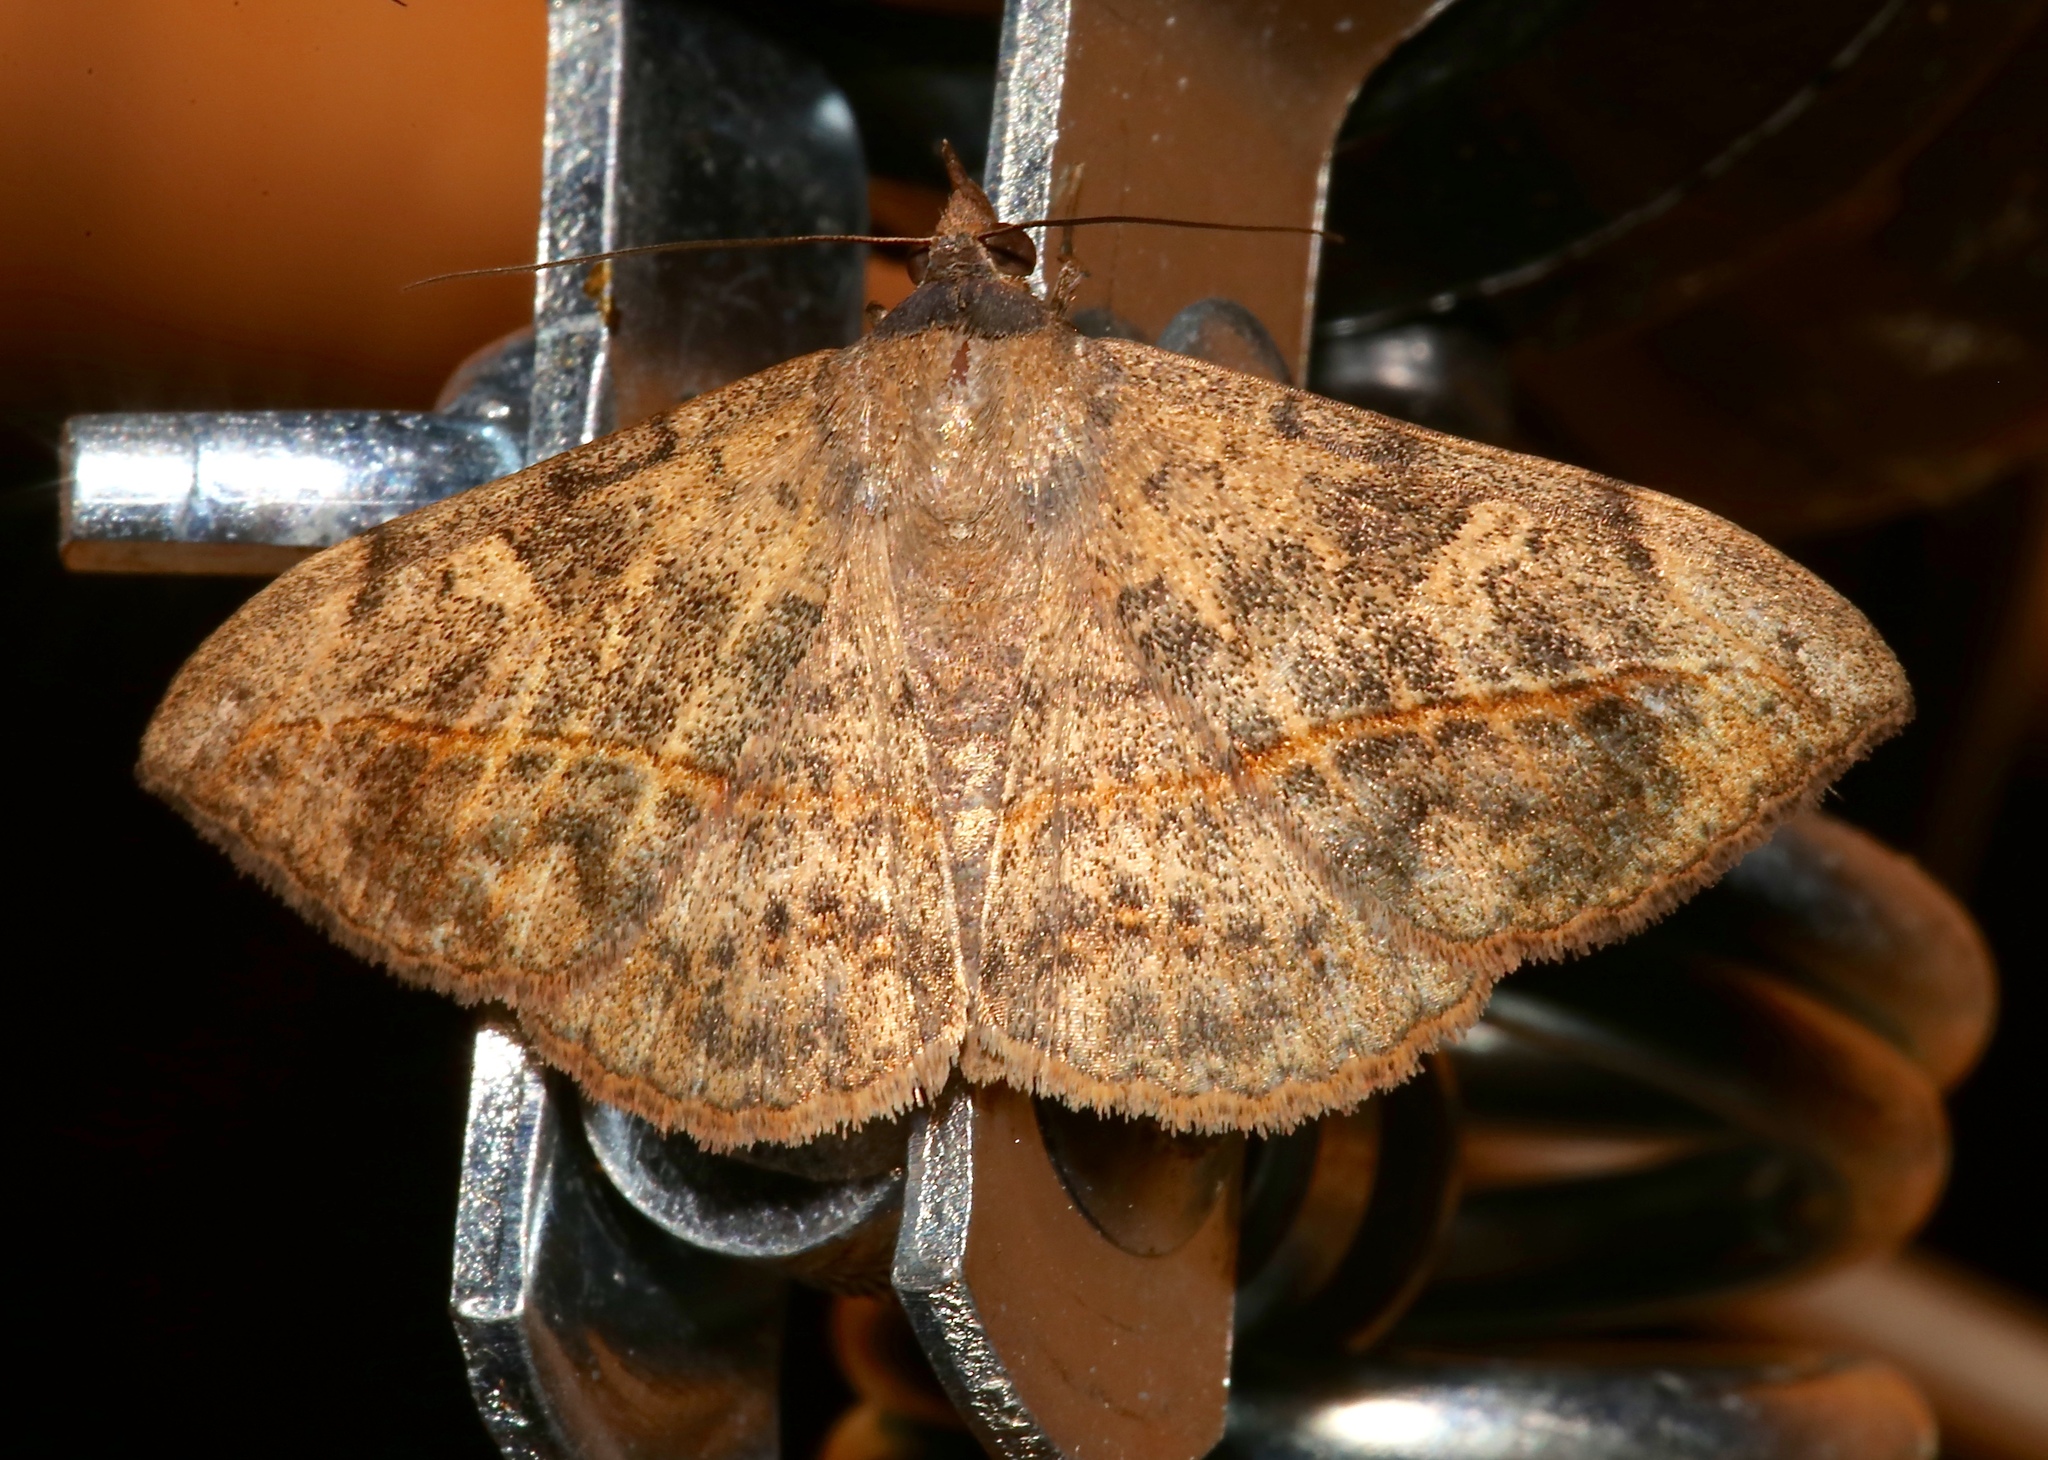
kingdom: Animalia
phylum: Arthropoda
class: Insecta
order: Lepidoptera
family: Erebidae
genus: Anticarsia
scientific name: Anticarsia gemmatalis
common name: Cutworm moth
